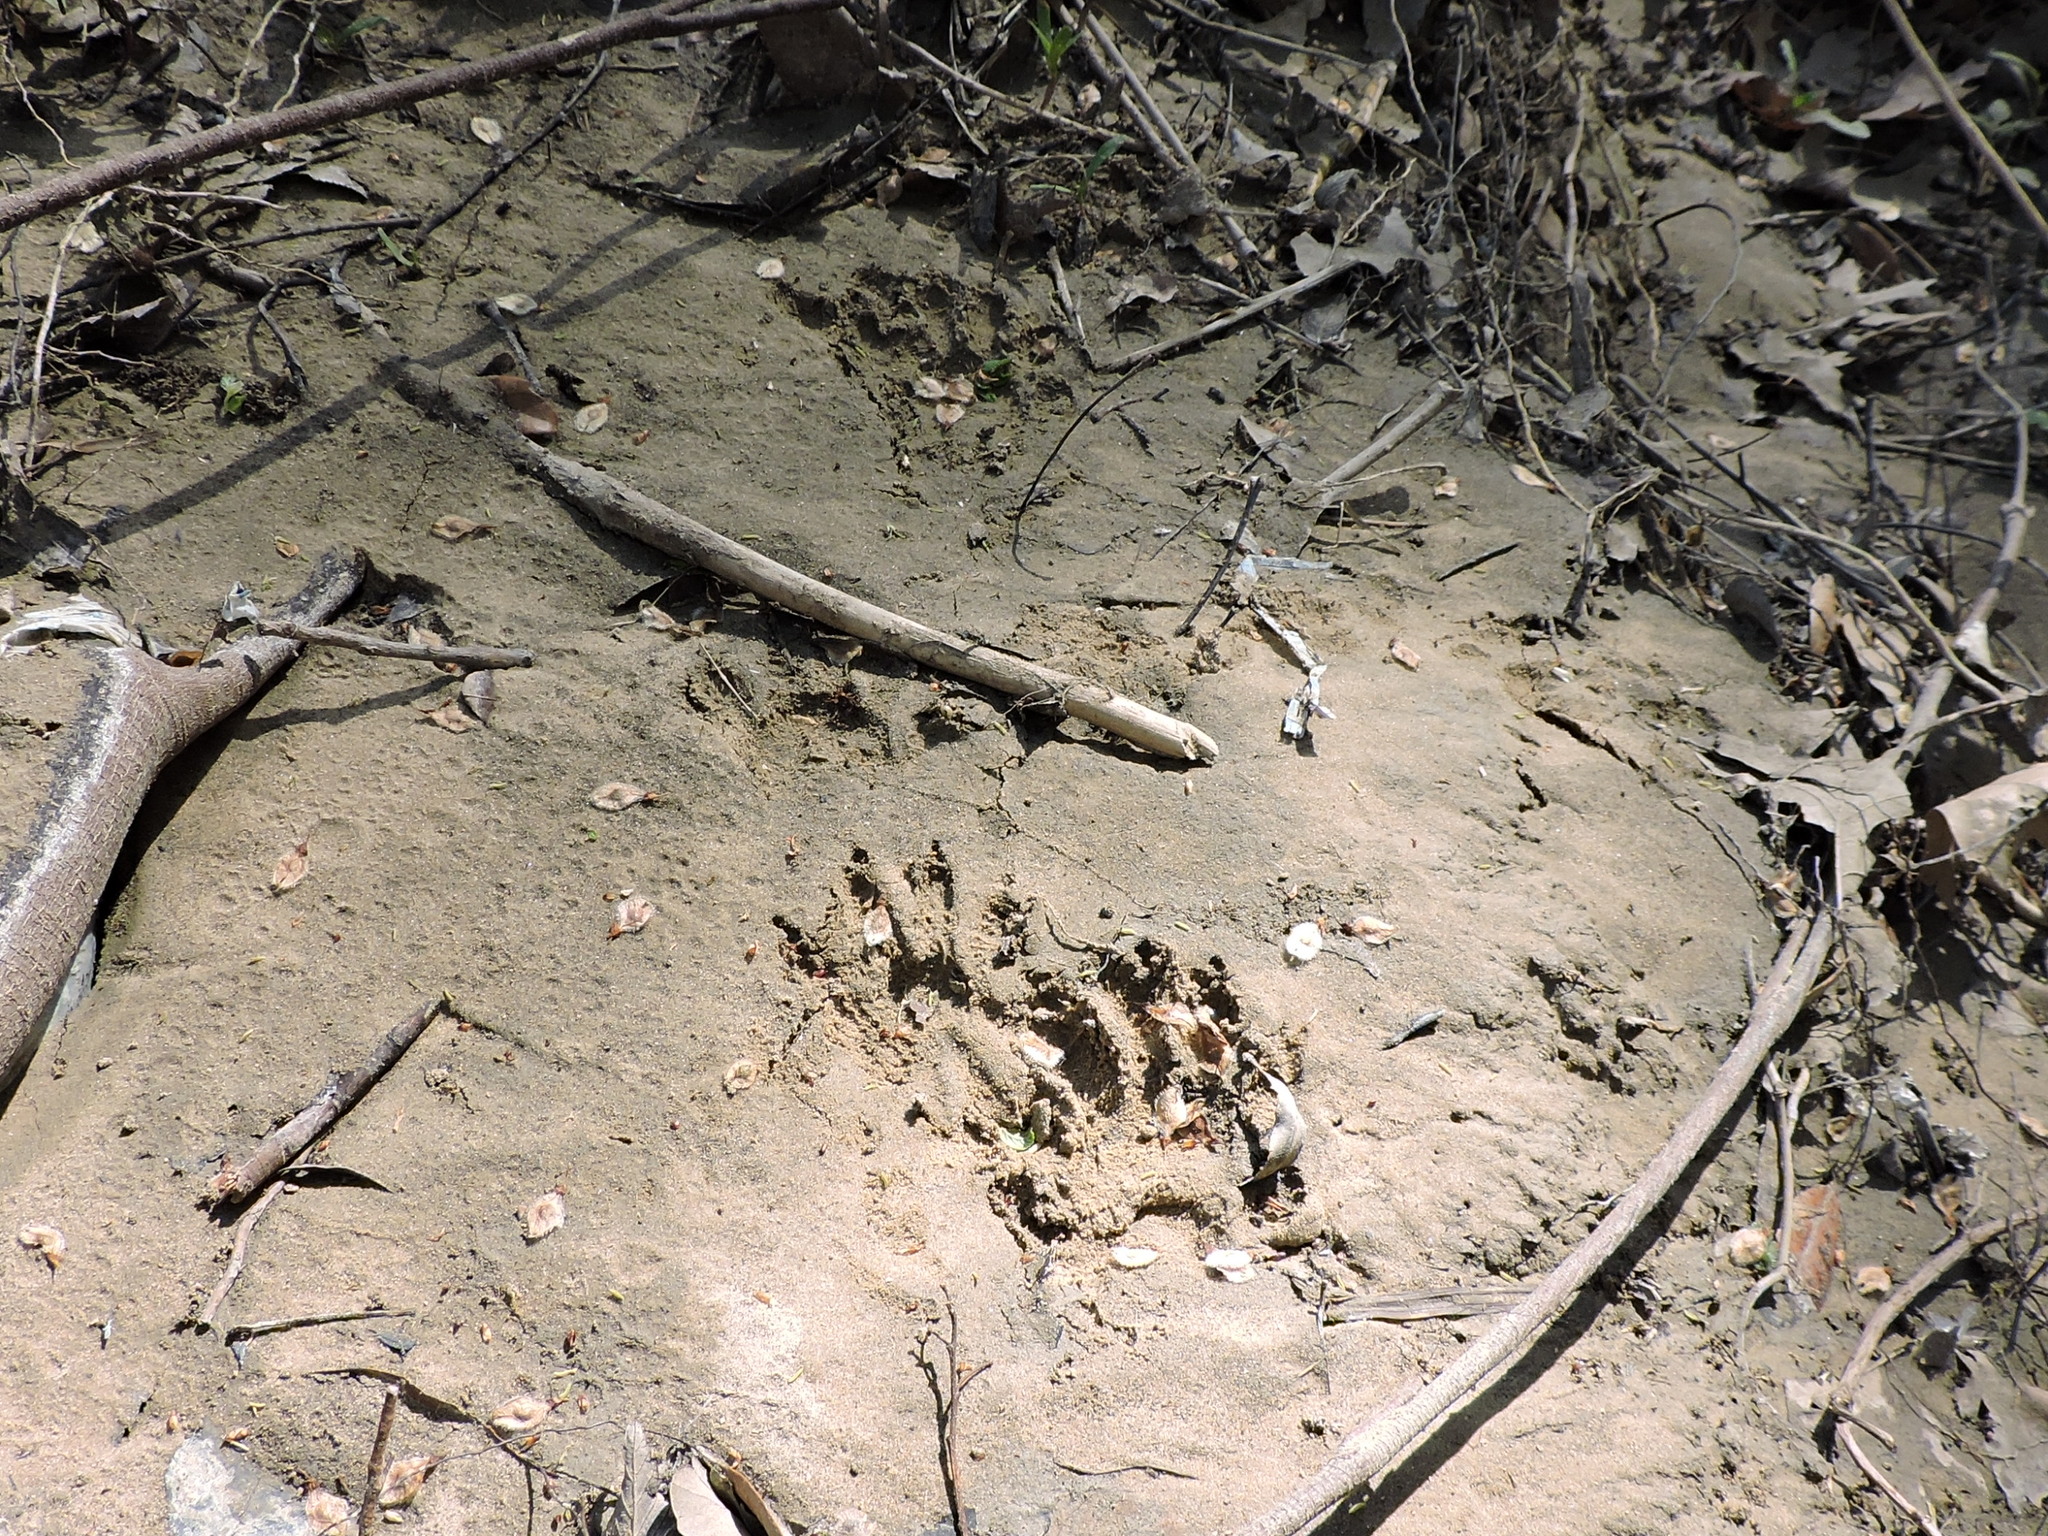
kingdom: Animalia
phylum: Chordata
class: Mammalia
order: Carnivora
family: Procyonidae
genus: Procyon
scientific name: Procyon lotor
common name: Raccoon
